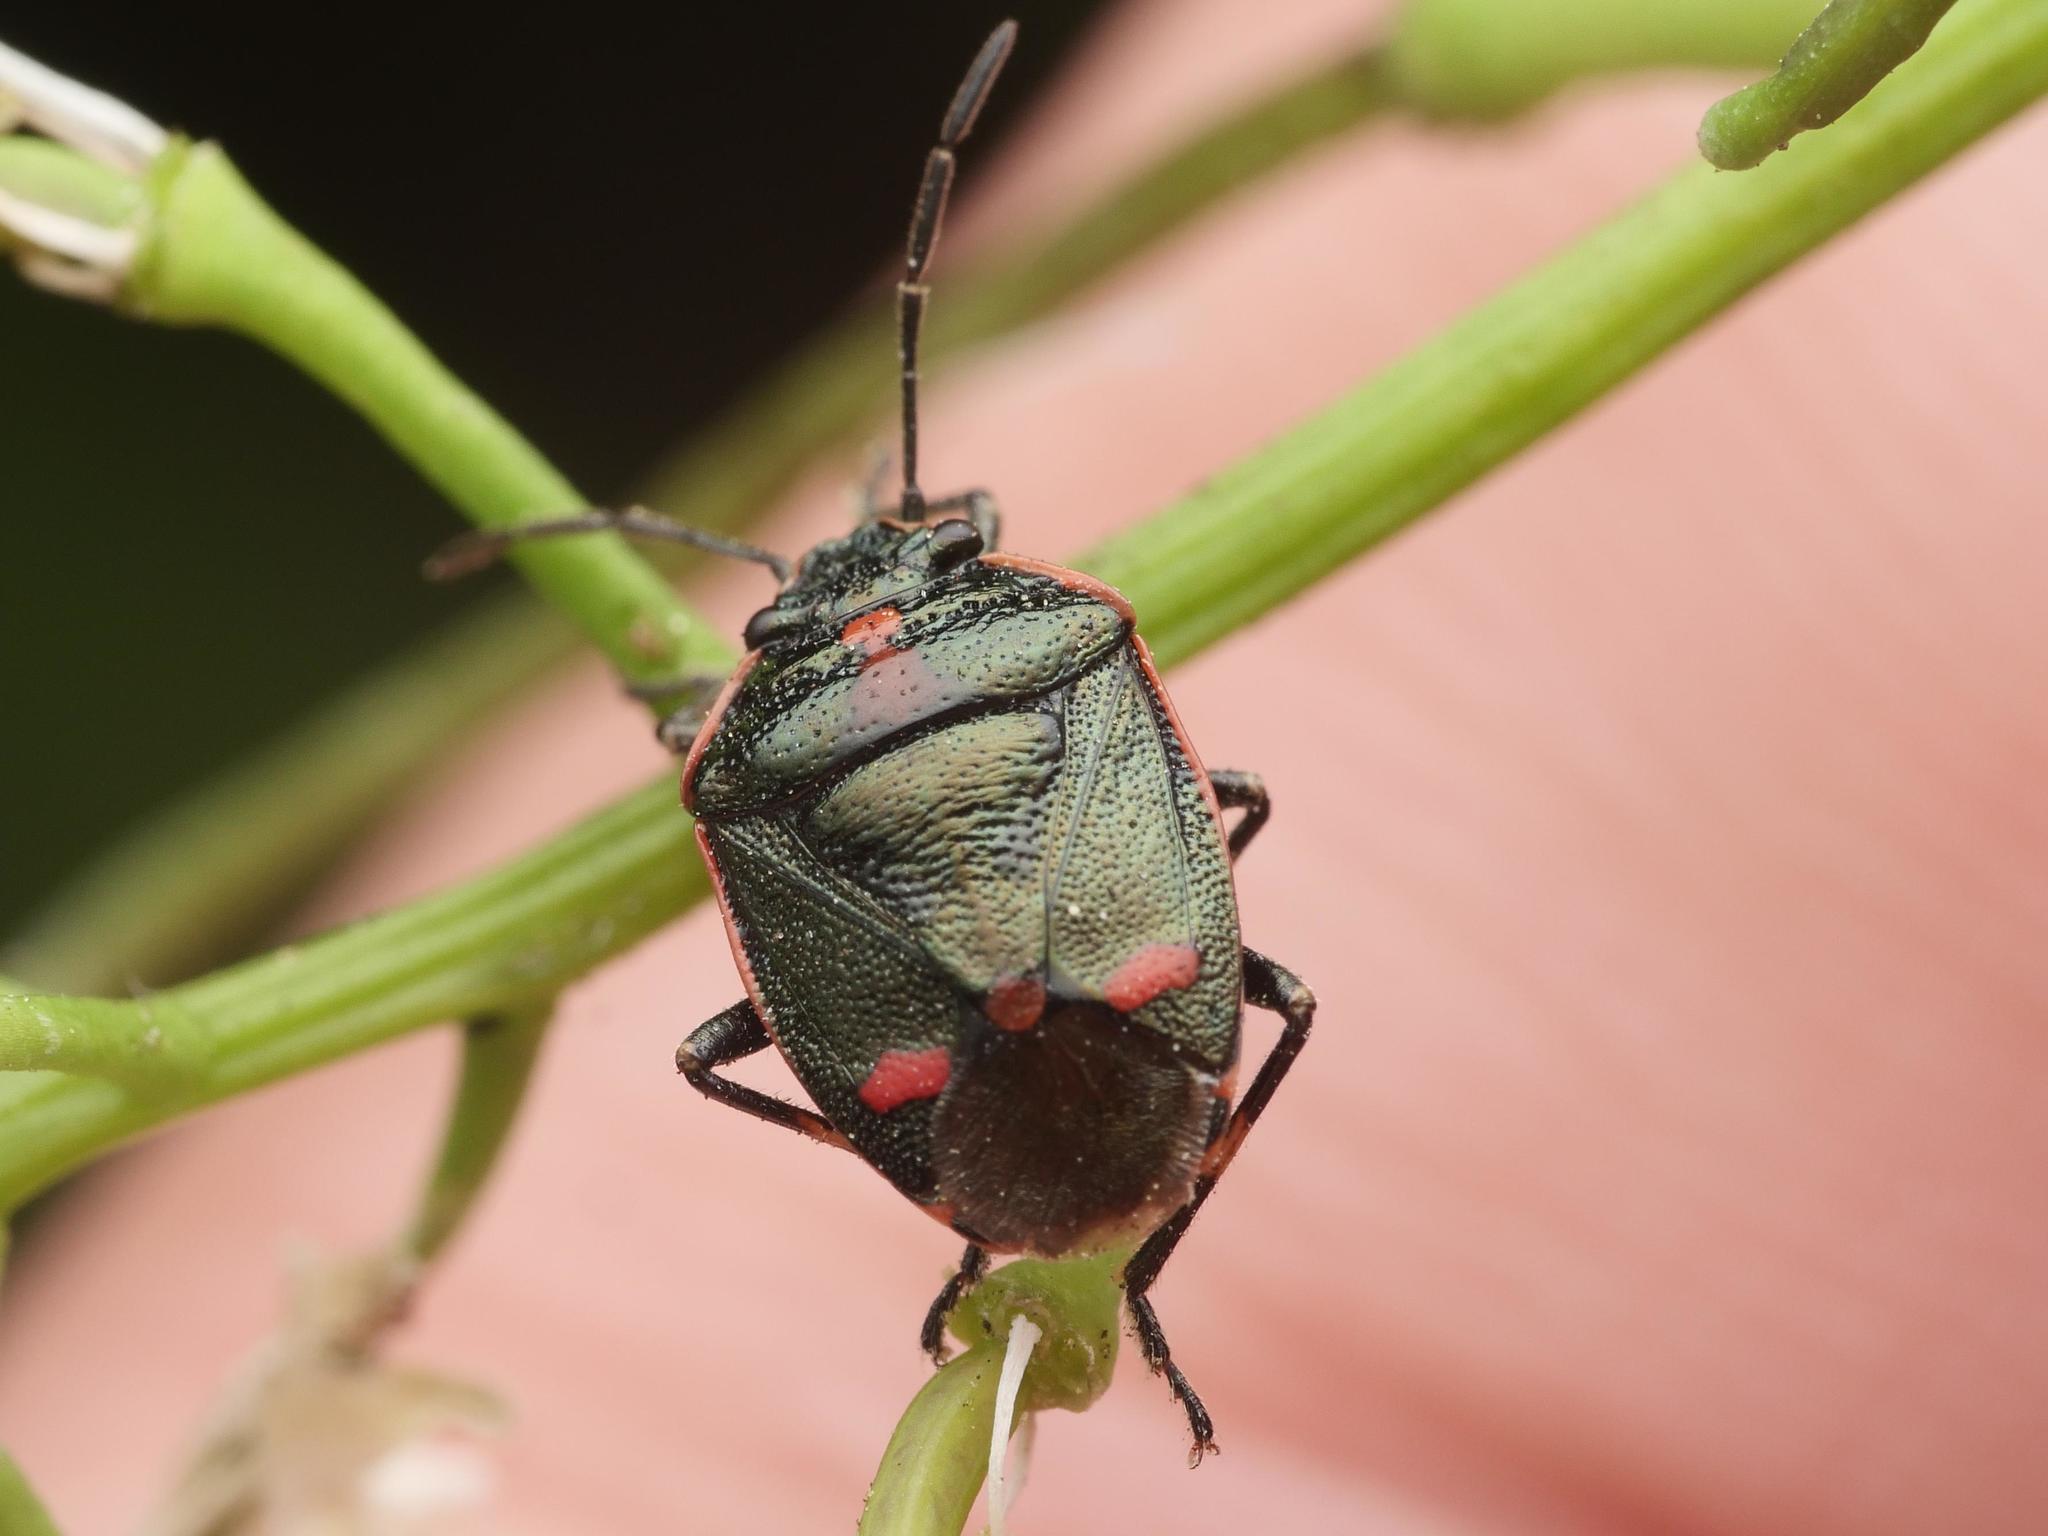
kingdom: Animalia
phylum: Arthropoda
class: Insecta
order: Hemiptera
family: Pentatomidae
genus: Eurydema
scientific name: Eurydema oleracea
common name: Cabbage bug
